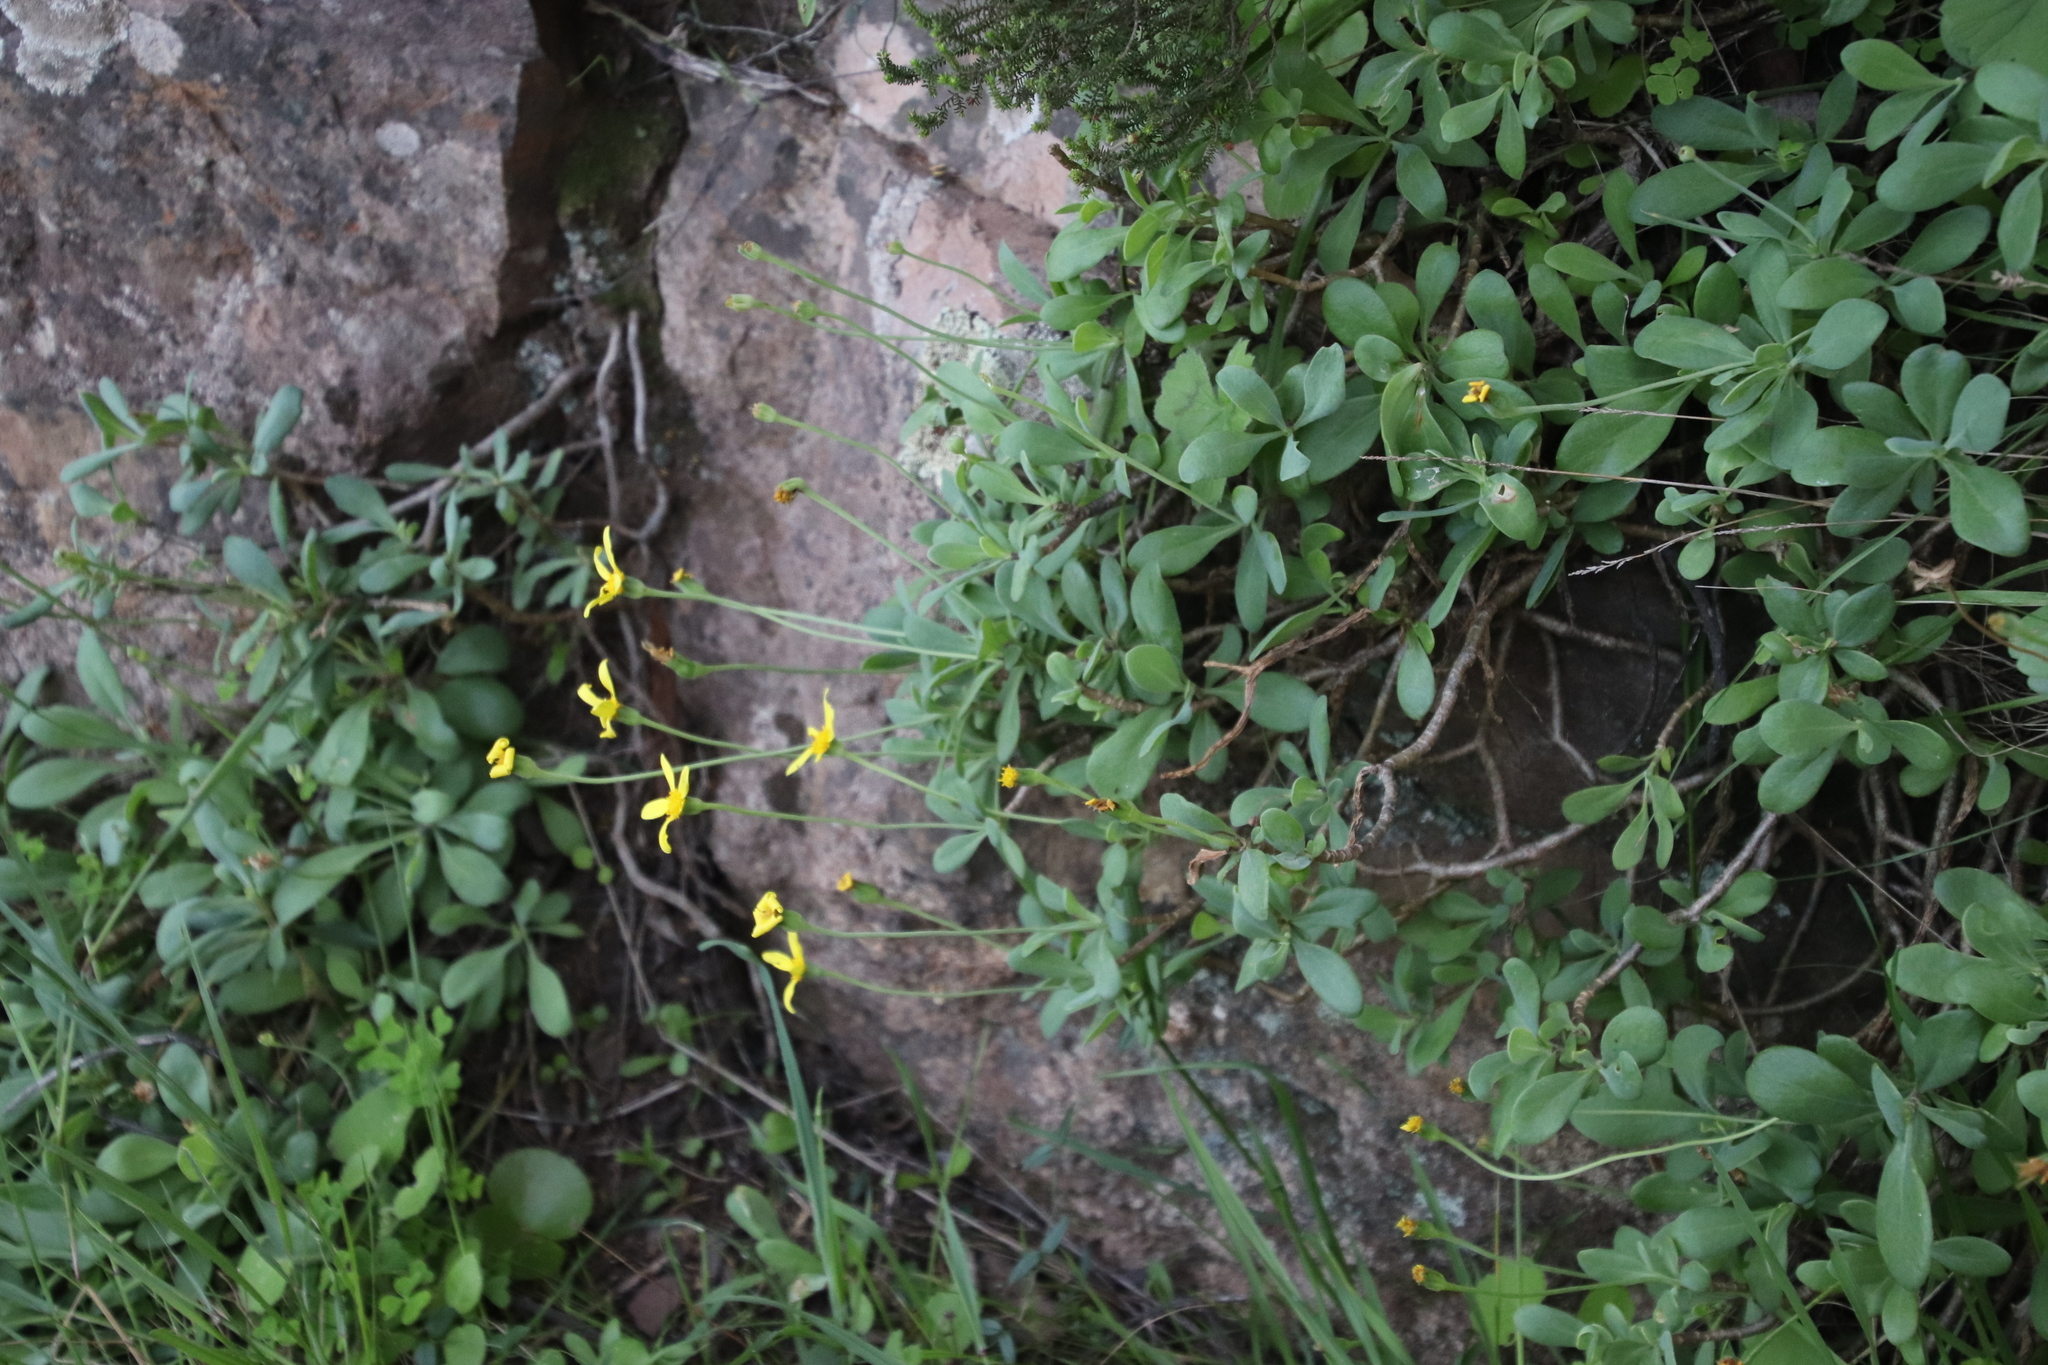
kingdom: Plantae
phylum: Tracheophyta
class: Magnoliopsida
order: Asterales
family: Asteraceae
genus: Othonna
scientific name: Othonna arborescens
